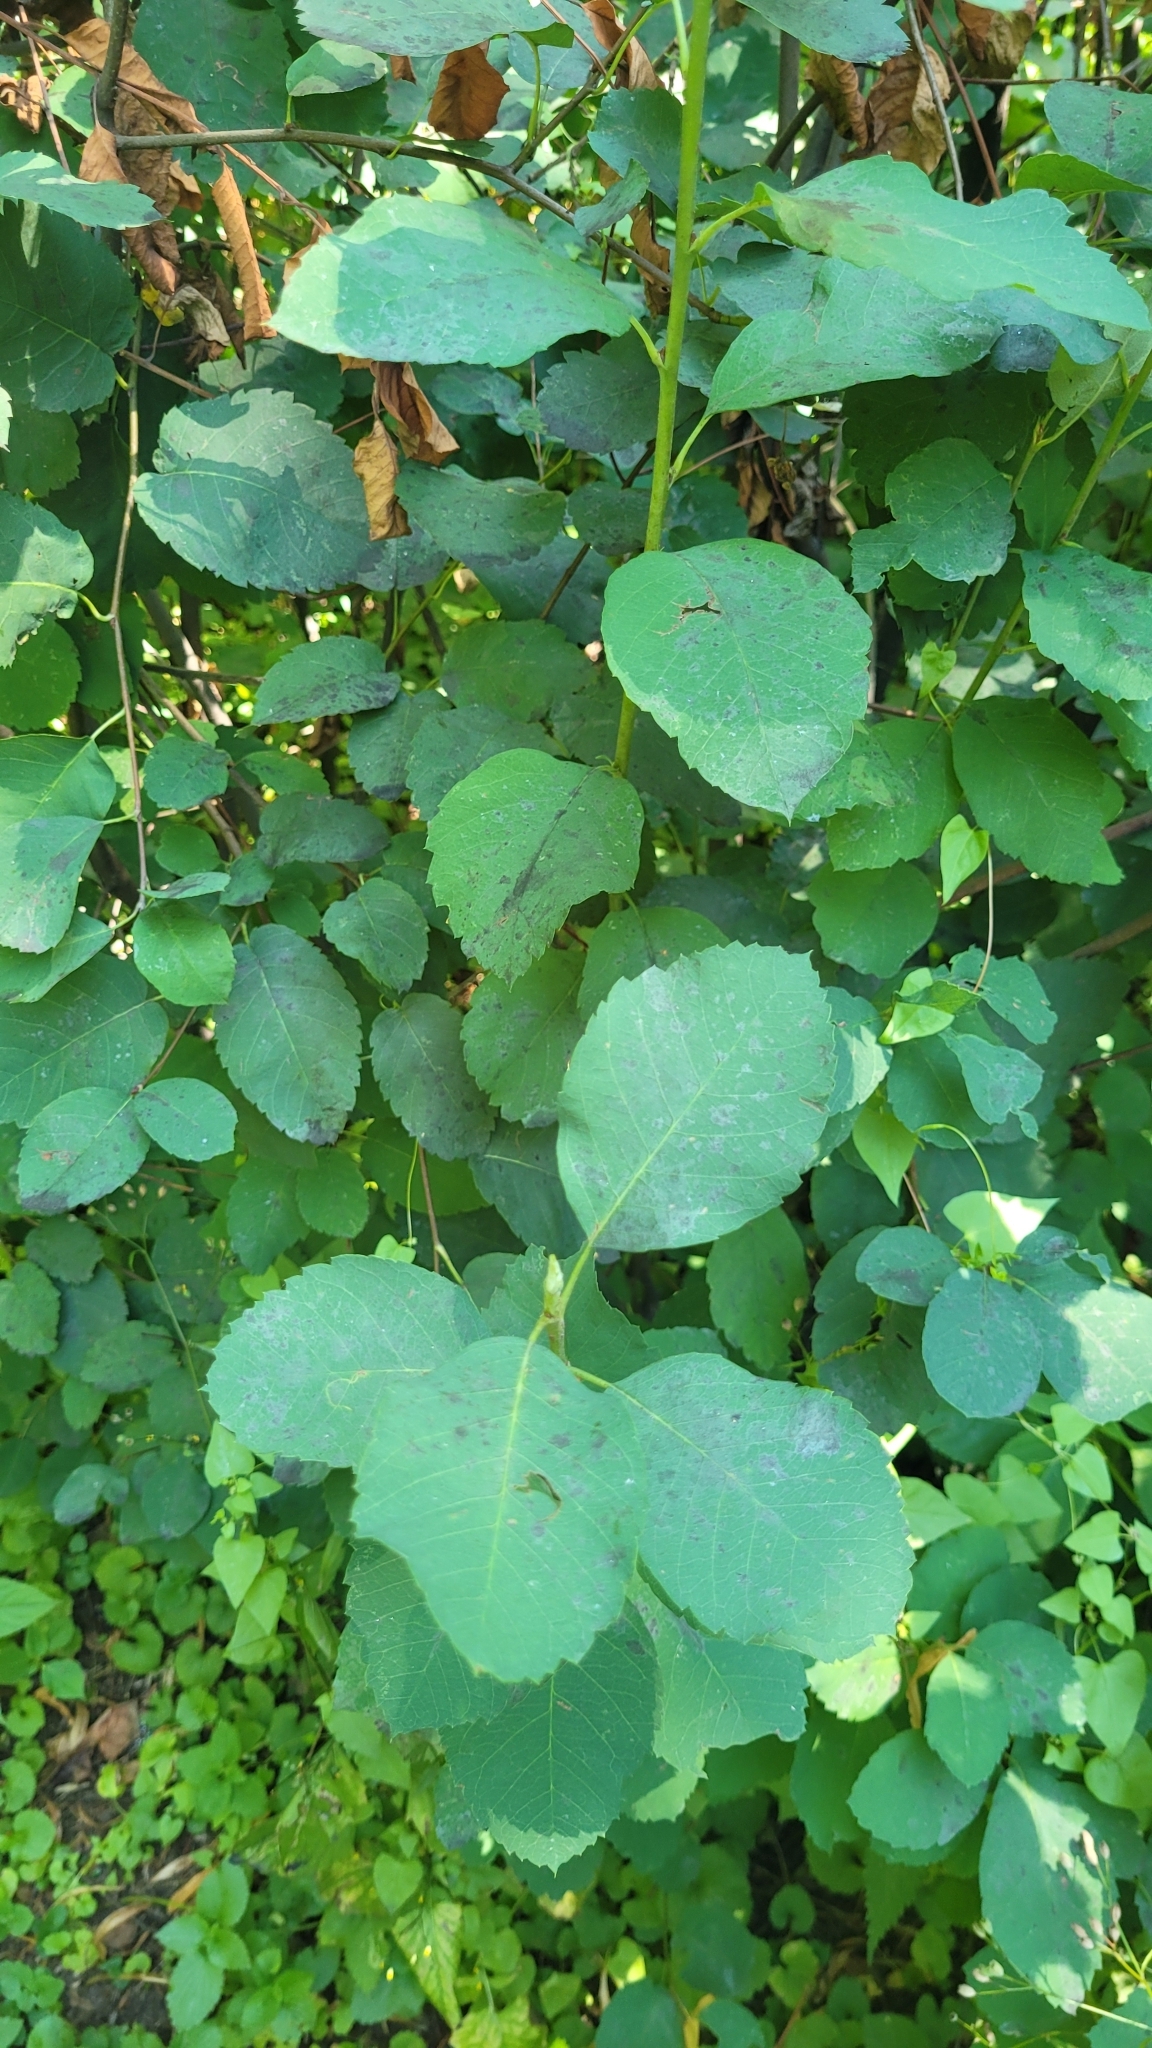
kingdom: Plantae
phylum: Tracheophyta
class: Magnoliopsida
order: Rosales
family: Rosaceae
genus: Amelanchier
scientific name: Amelanchier alnifolia
